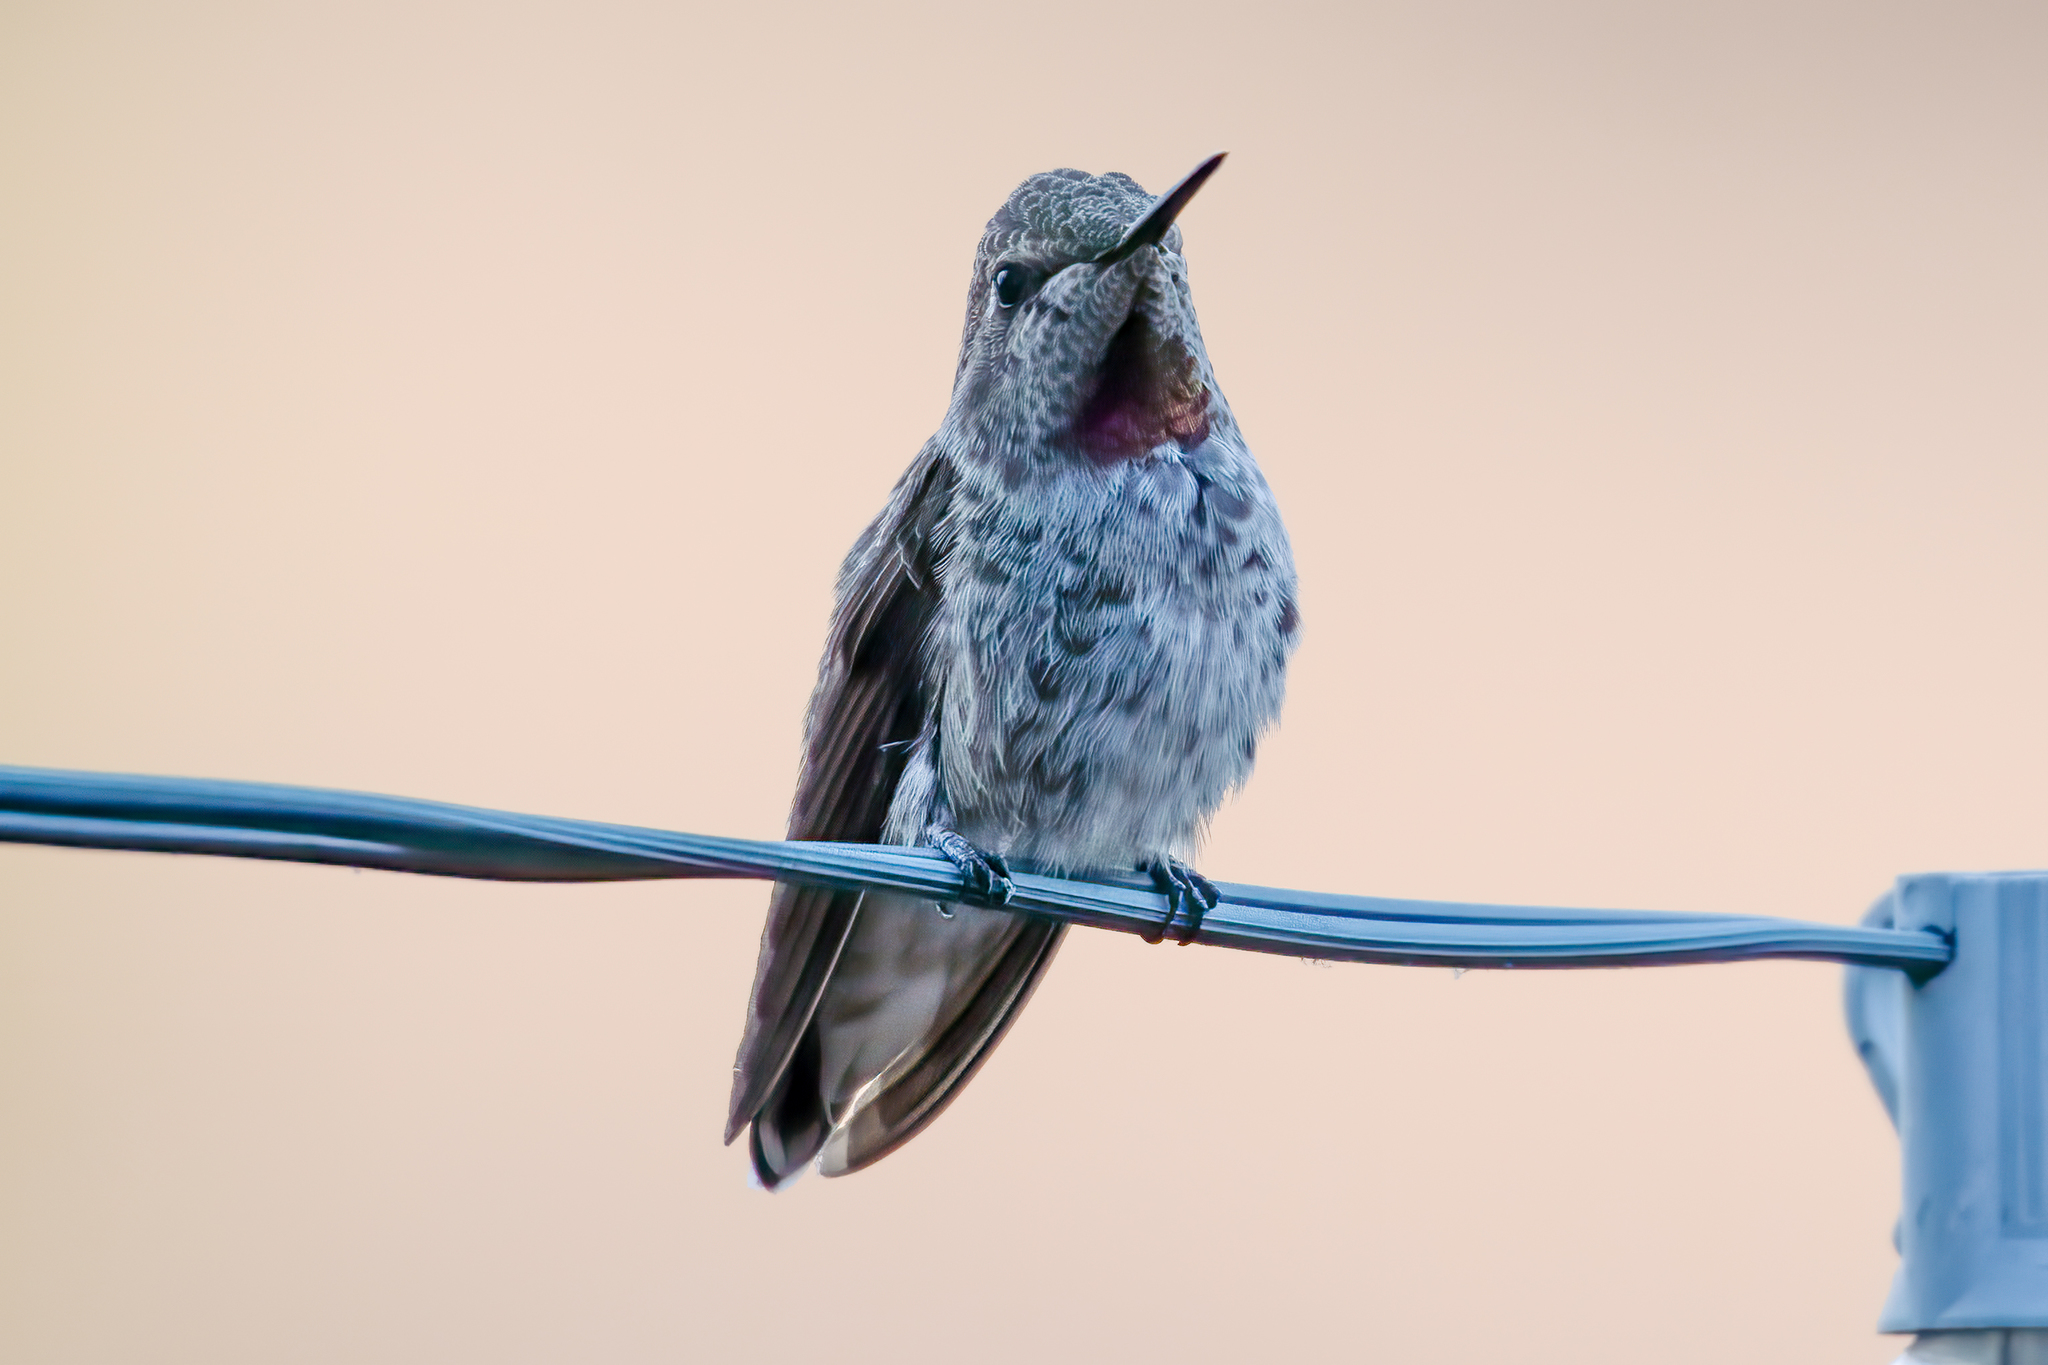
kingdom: Animalia
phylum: Chordata
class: Aves
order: Apodiformes
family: Trochilidae
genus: Calypte
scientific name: Calypte anna
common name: Anna's hummingbird
